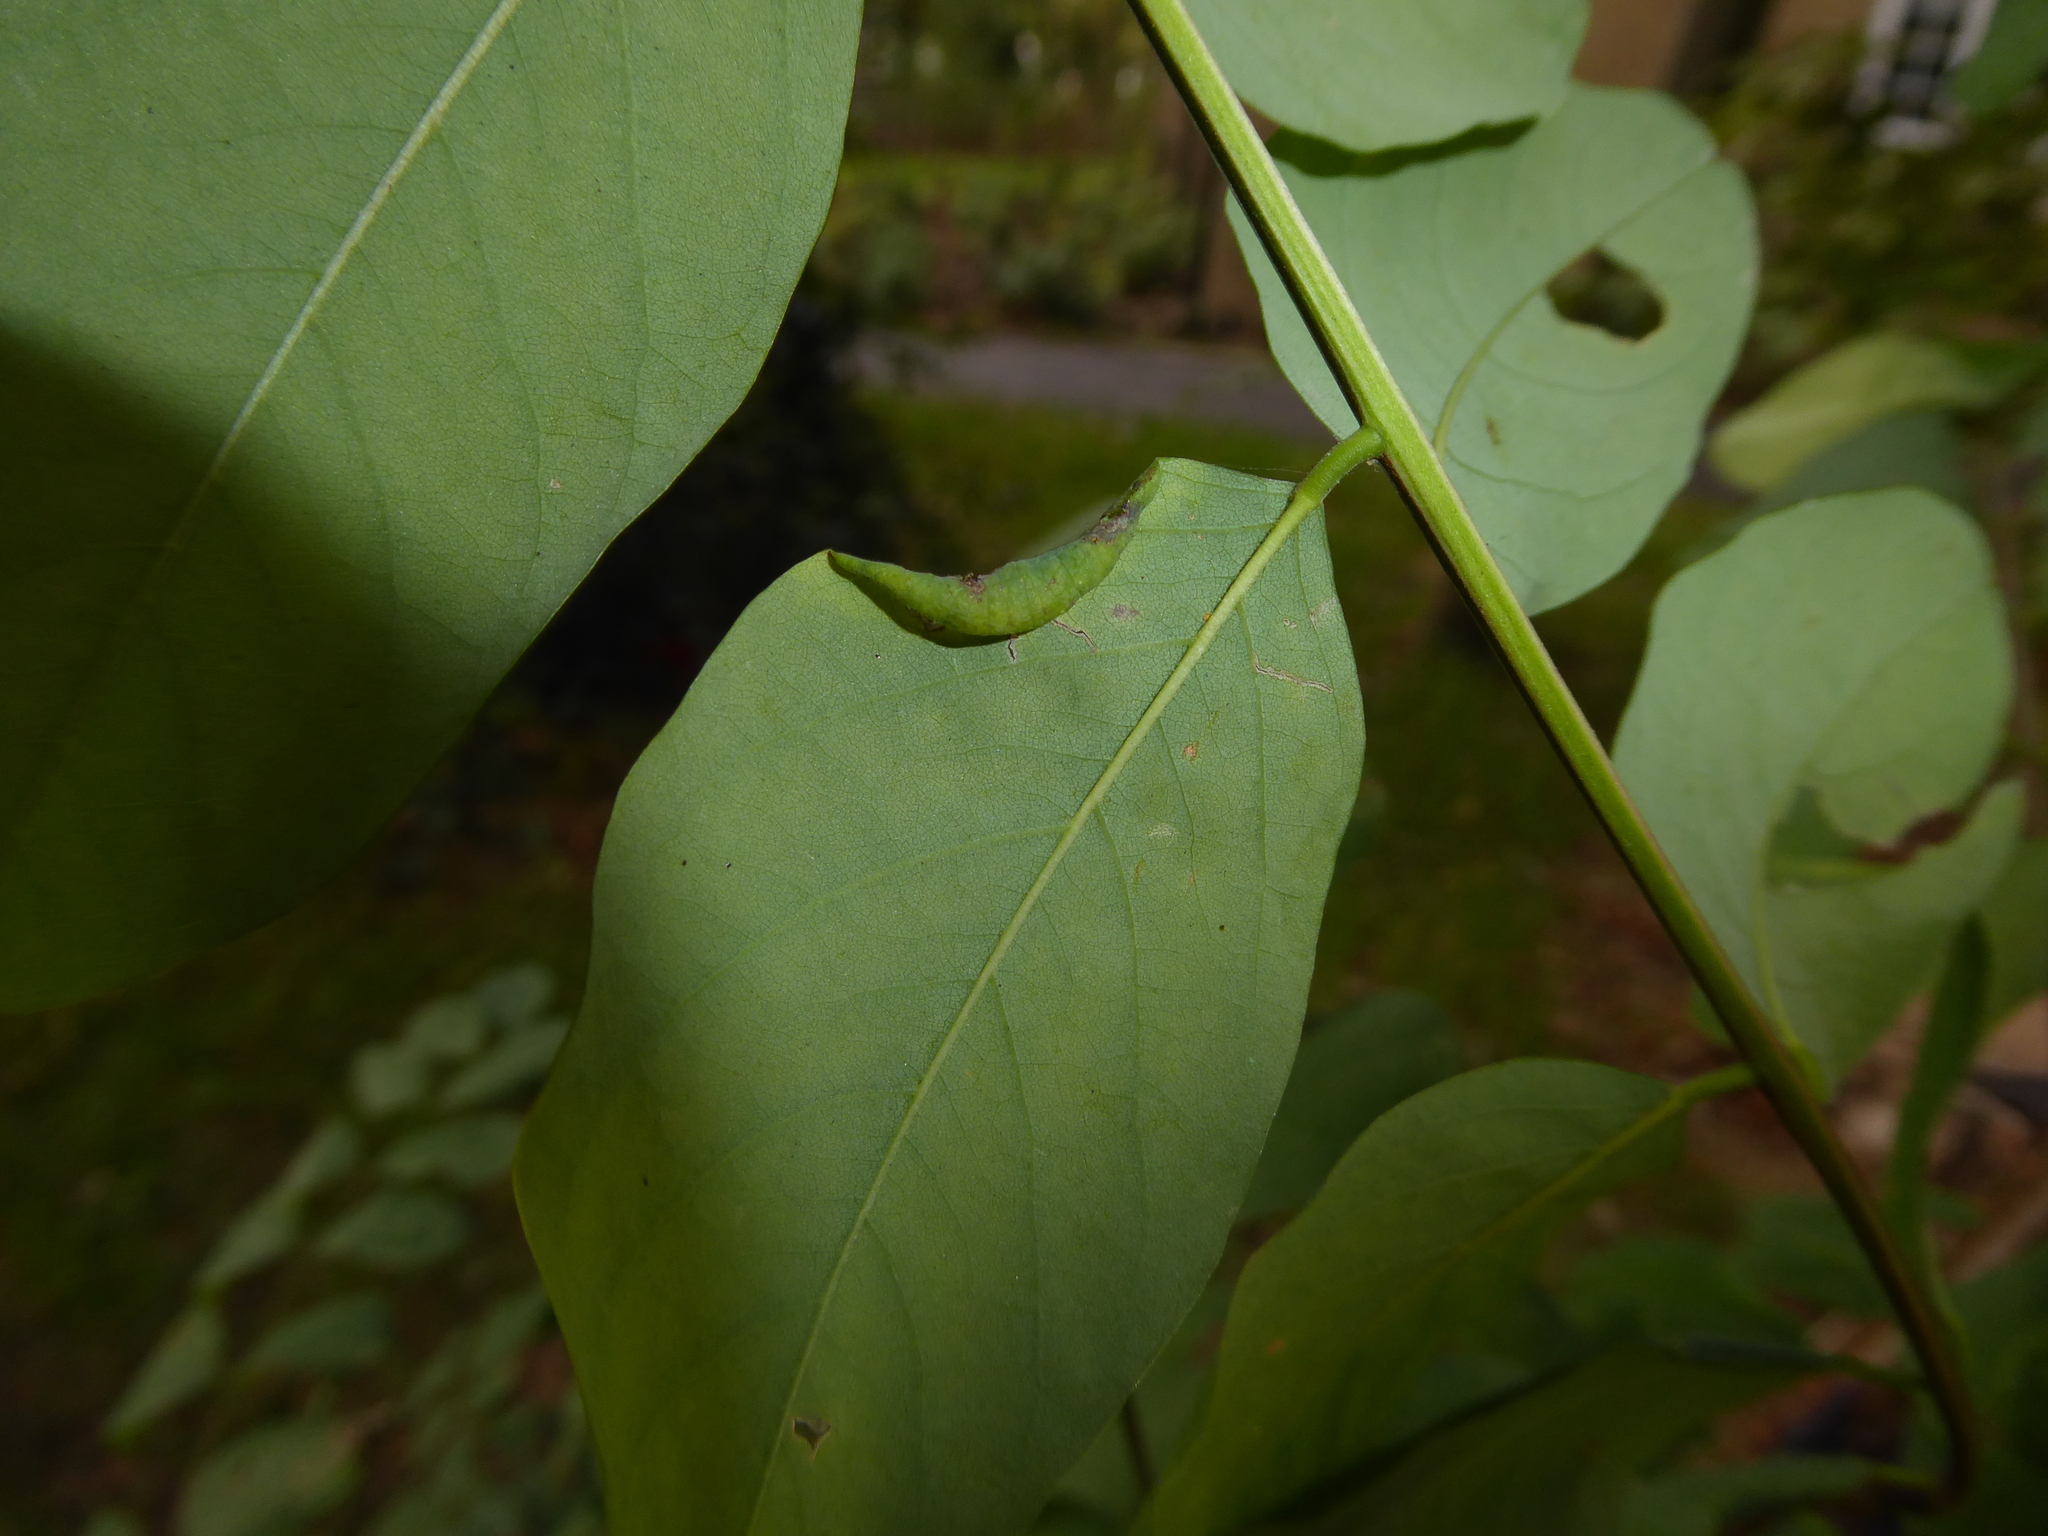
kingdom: Animalia
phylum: Arthropoda
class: Insecta
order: Diptera
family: Cecidomyiidae
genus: Obolodiplosis
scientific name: Obolodiplosis robiniae
